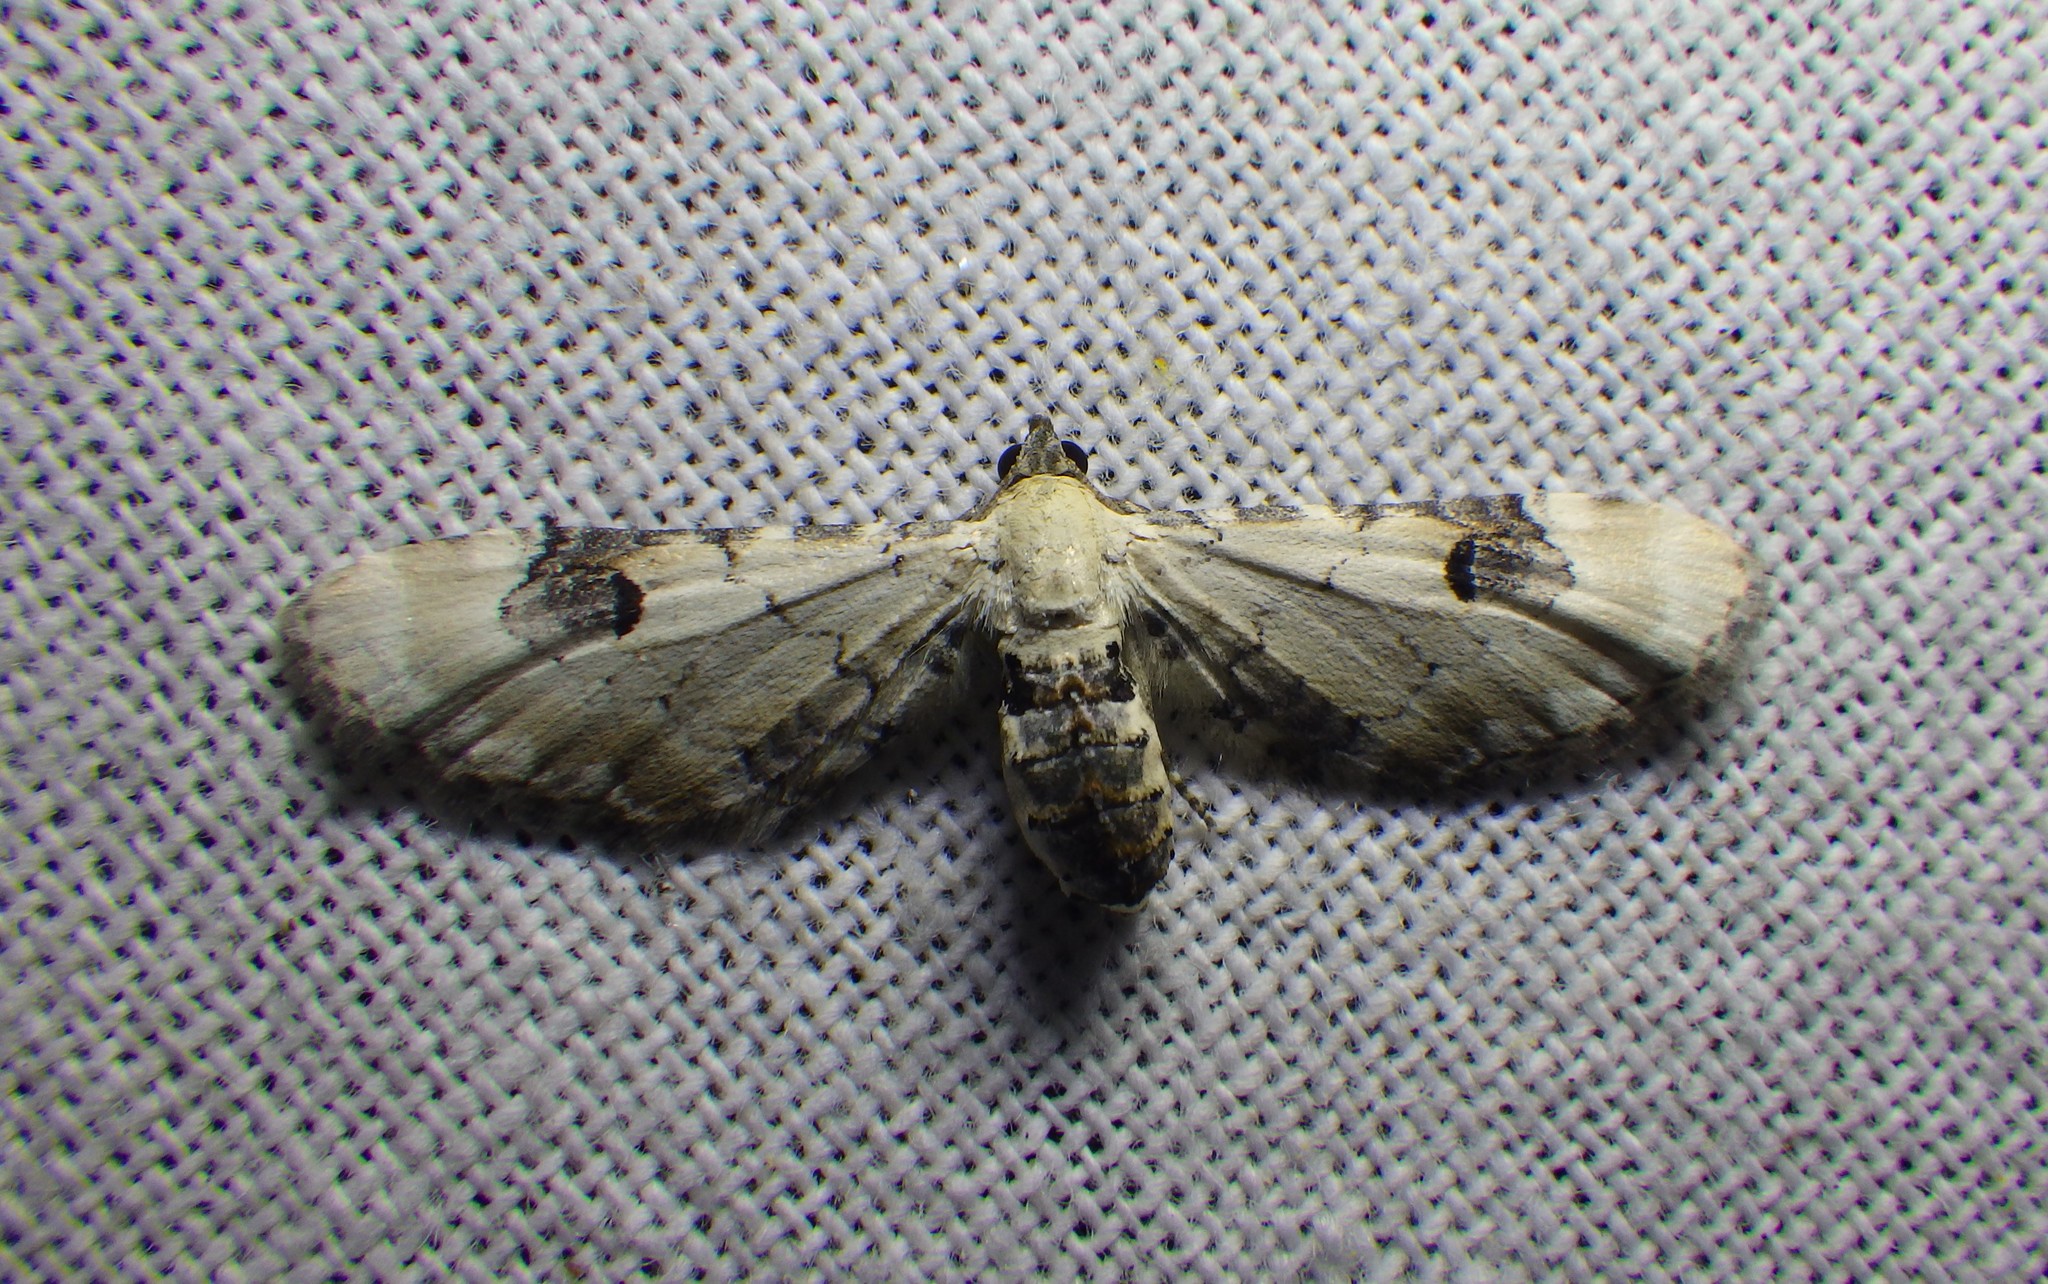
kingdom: Animalia
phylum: Arthropoda
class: Insecta
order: Lepidoptera
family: Geometridae
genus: Eupithecia
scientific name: Eupithecia centaureata
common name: Lime-speck pug
